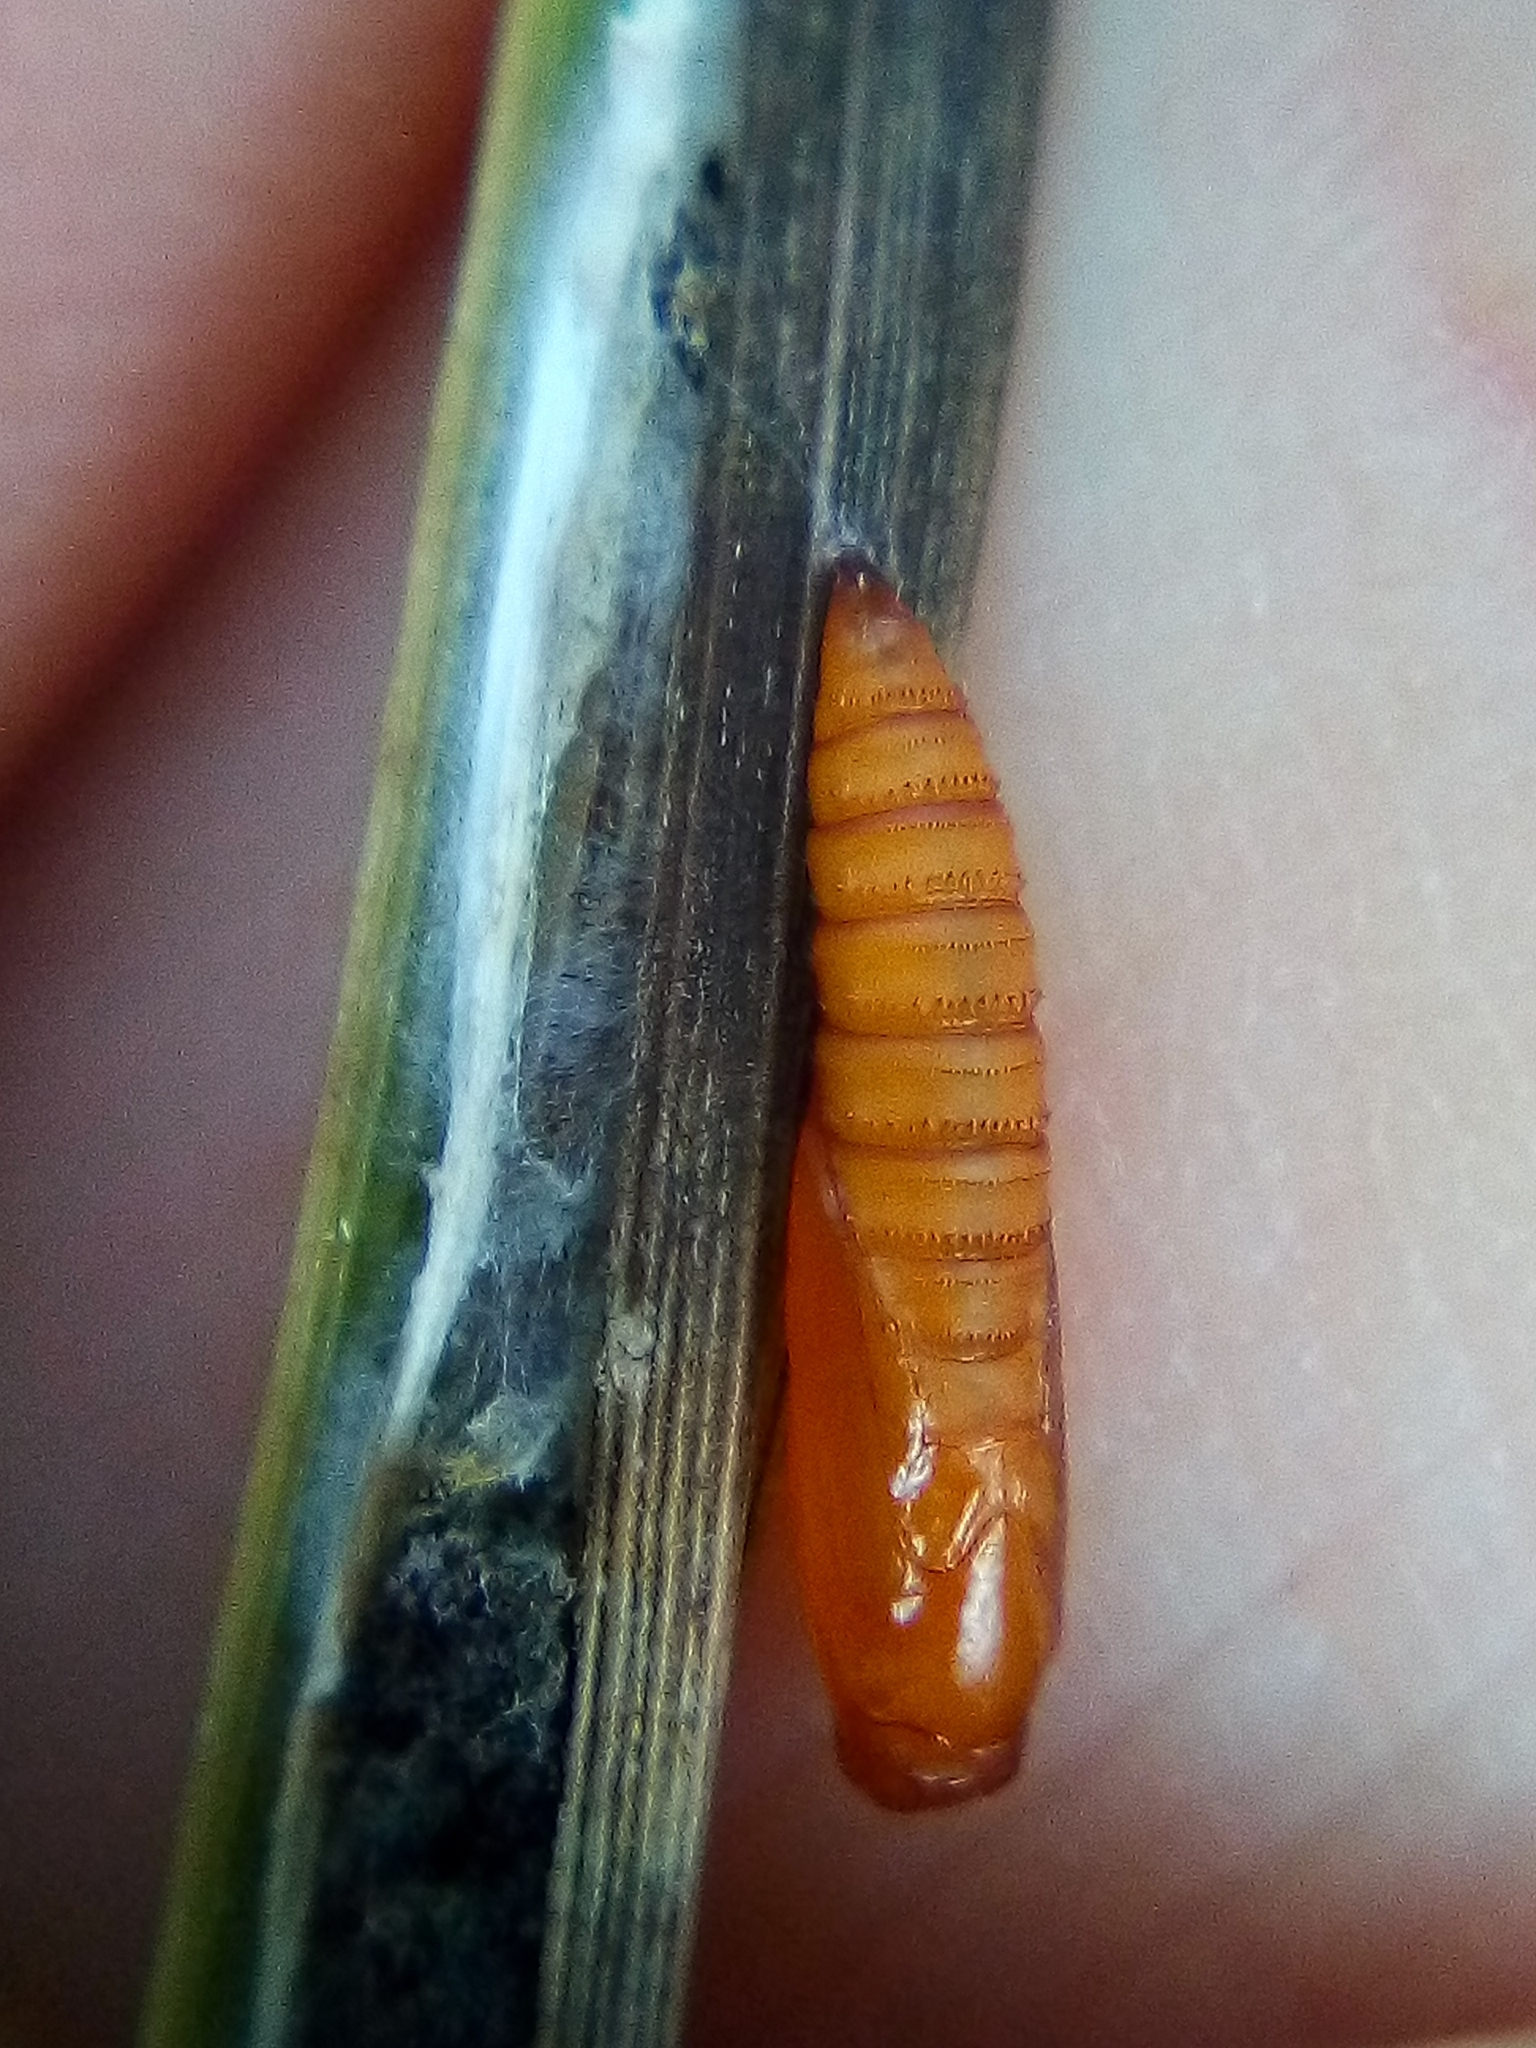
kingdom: Animalia
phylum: Arthropoda
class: Insecta
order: Lepidoptera
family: Tortricidae
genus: Catamacta
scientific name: Catamacta lotinana
